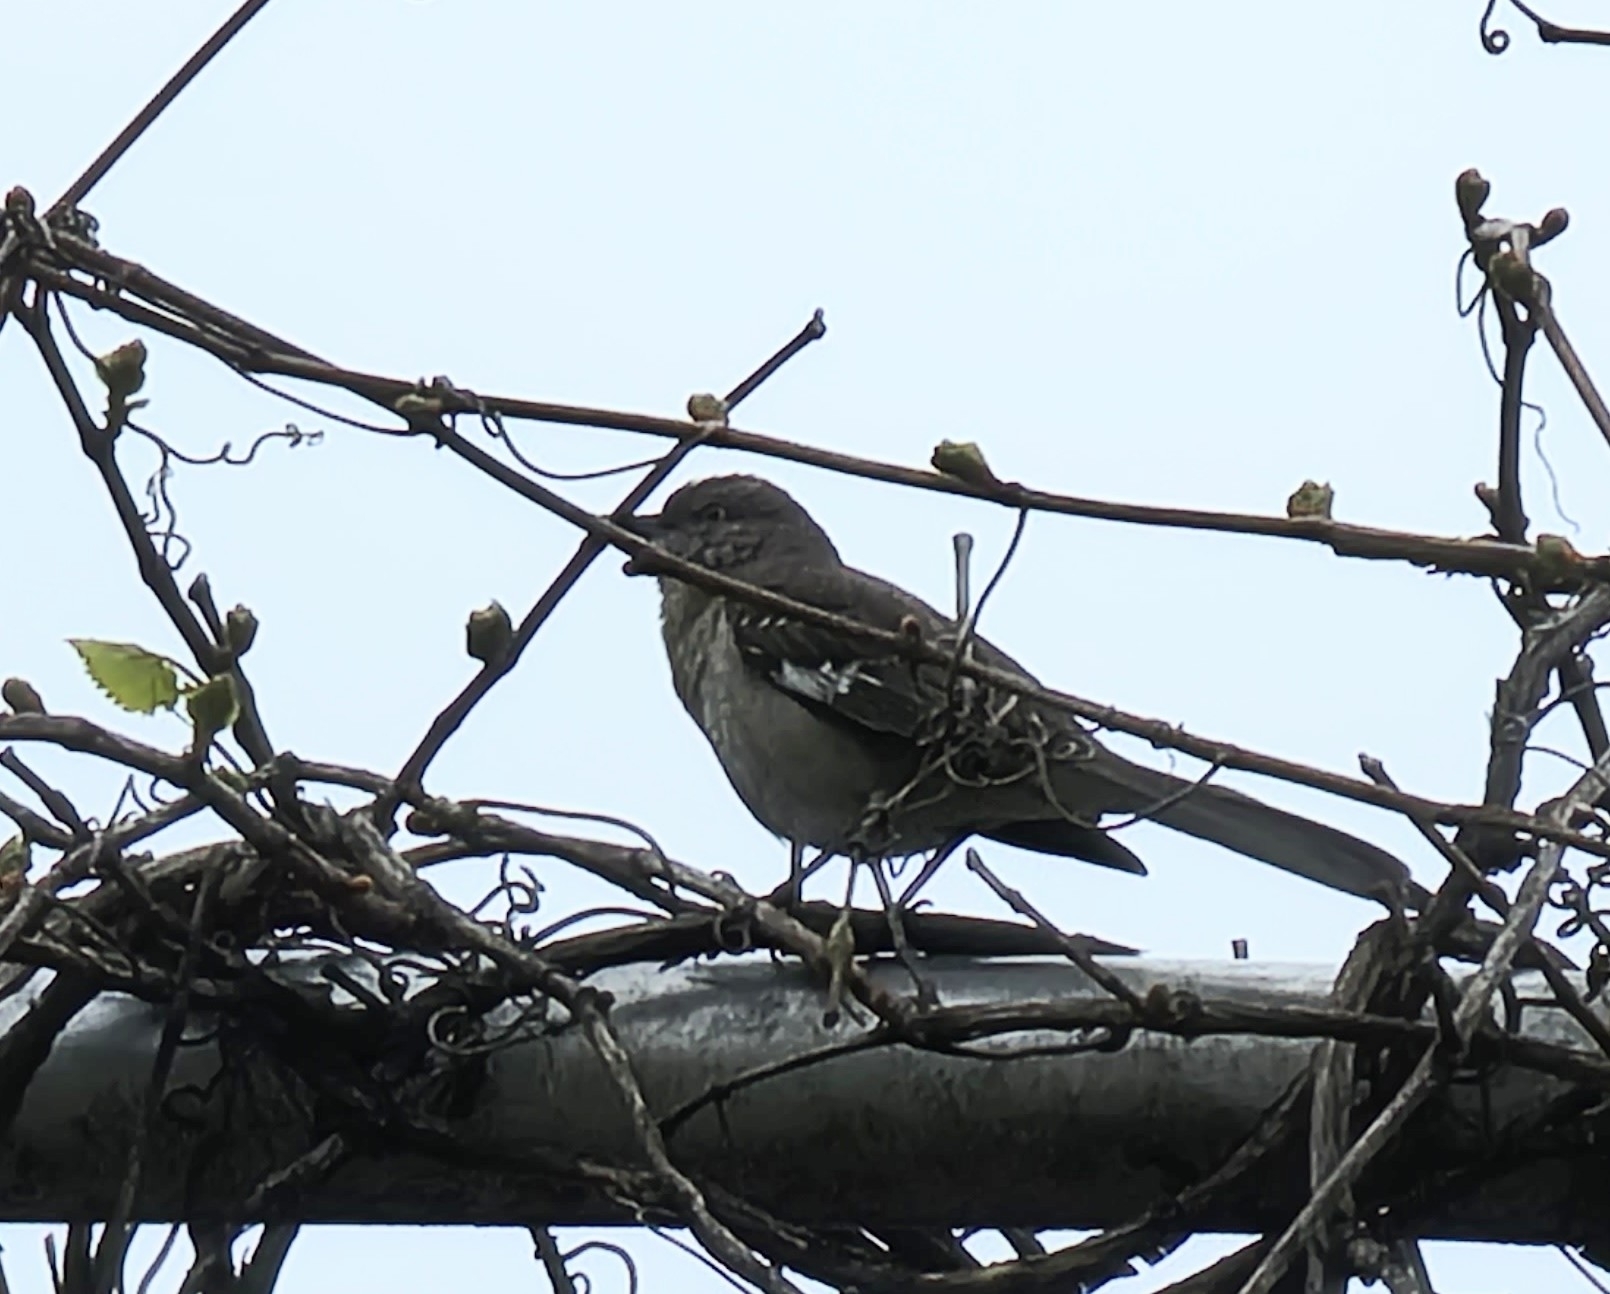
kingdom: Animalia
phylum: Chordata
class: Aves
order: Passeriformes
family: Mimidae
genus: Mimus
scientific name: Mimus polyglottos
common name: Northern mockingbird
